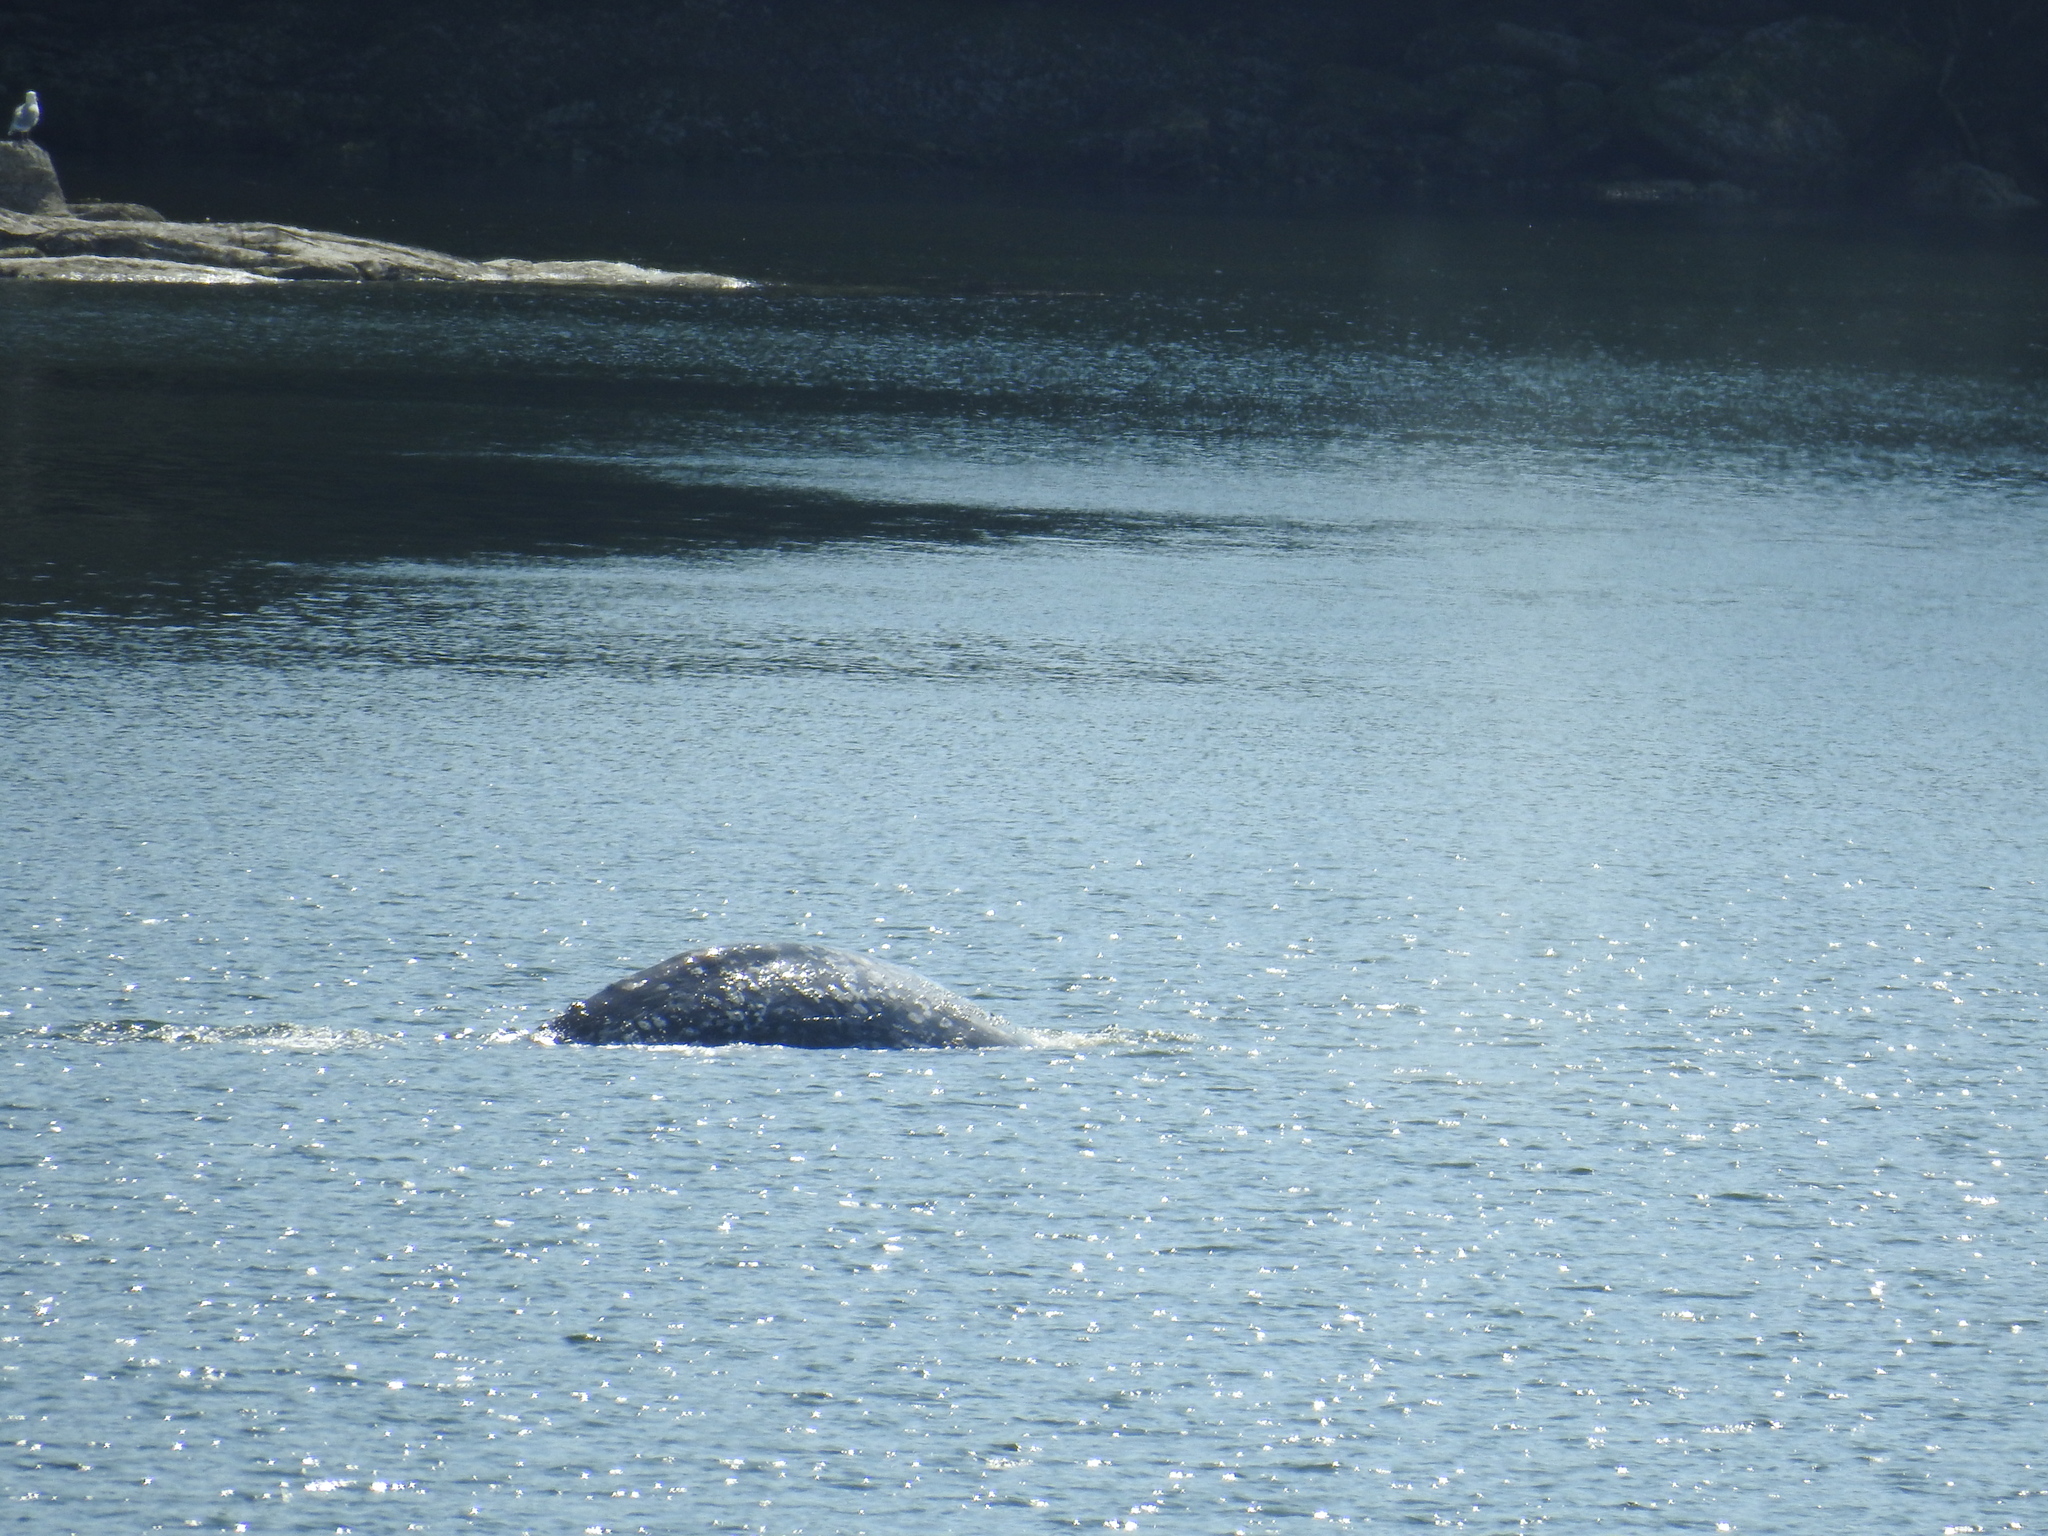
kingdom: Animalia
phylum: Chordata
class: Mammalia
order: Cetacea
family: Eschrichtiidae
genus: Eschrichtius
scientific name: Eschrichtius robustus
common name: Gray whale
